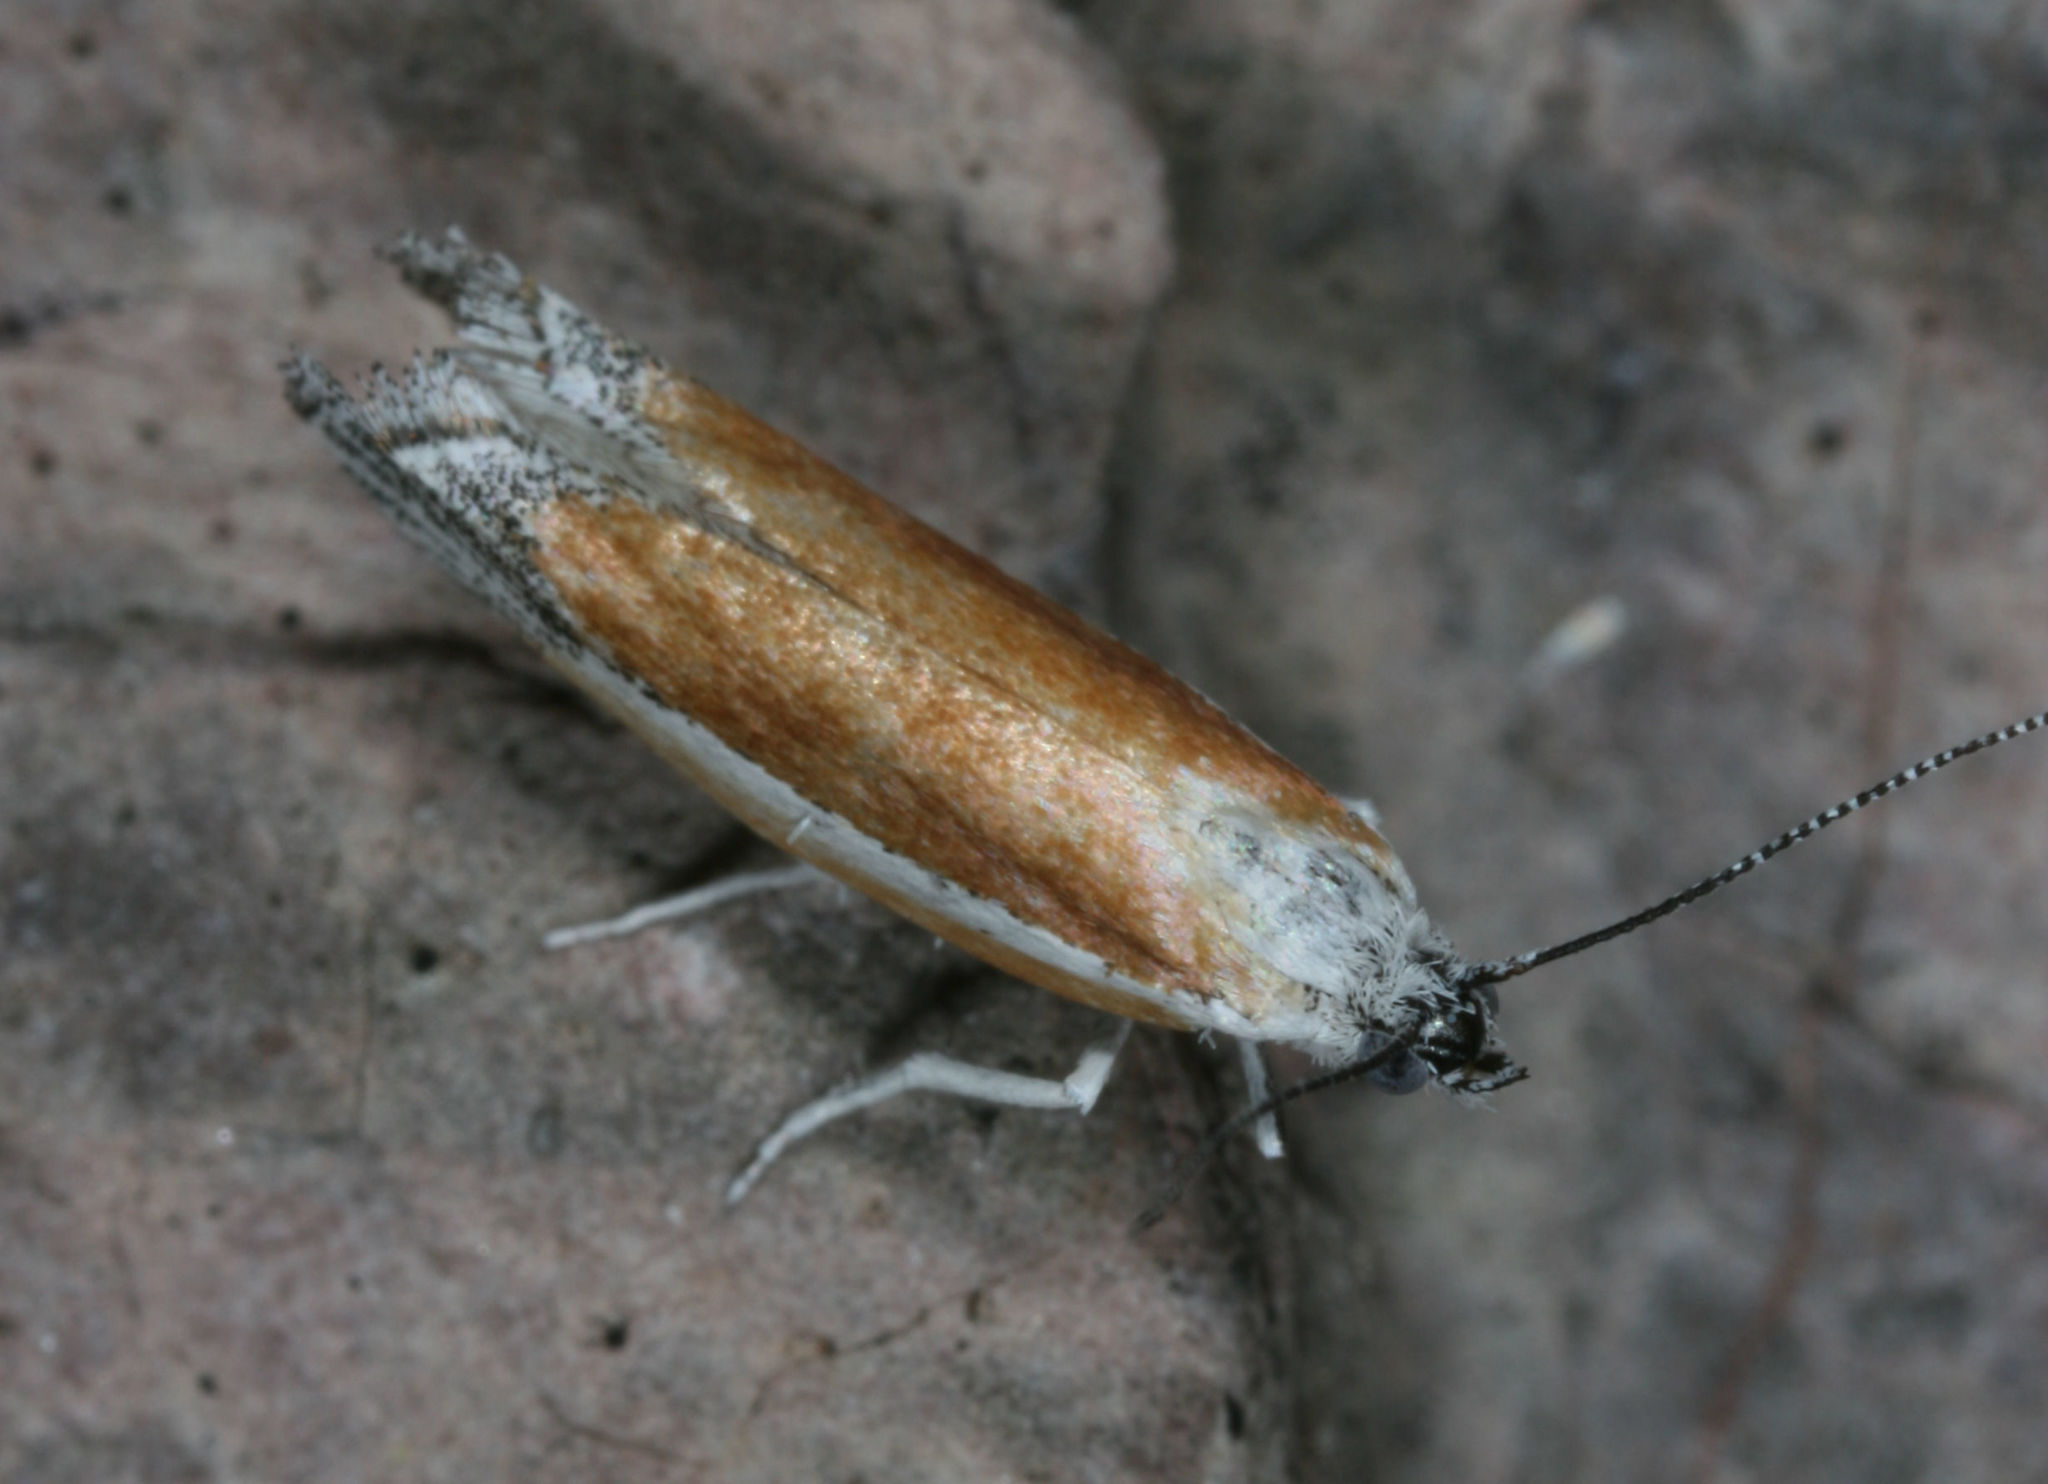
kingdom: Animalia
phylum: Arthropoda
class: Insecta
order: Lepidoptera
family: Ypsolophidae
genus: Ypsolopha
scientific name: Ypsolopha delicatella
